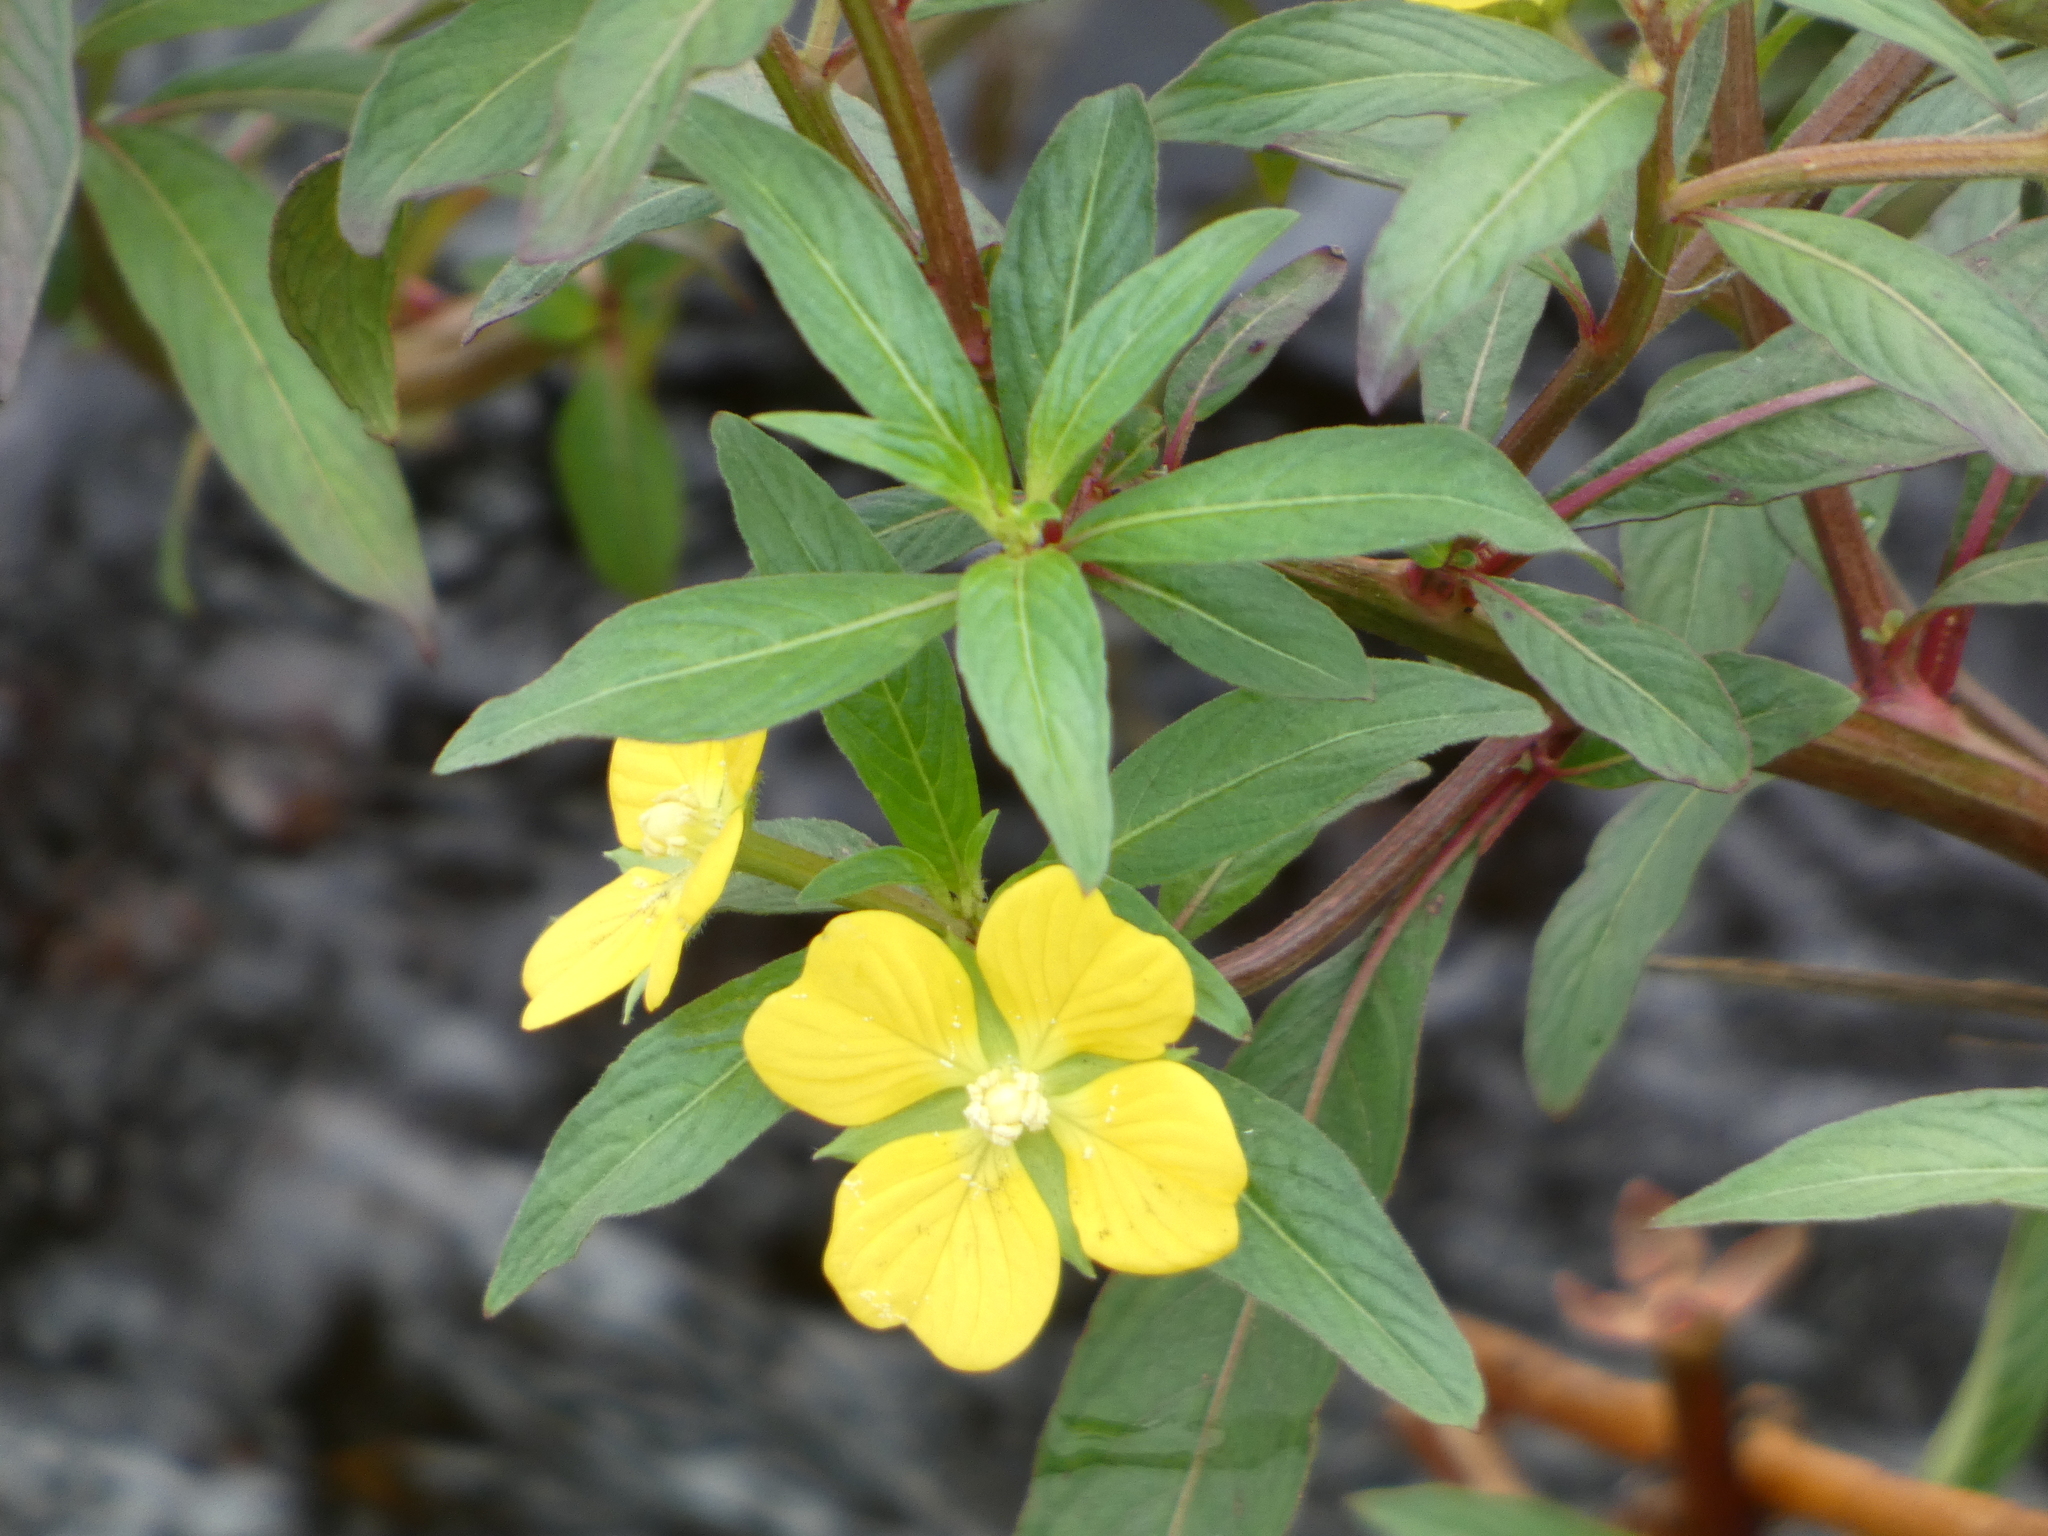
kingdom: Plantae
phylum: Tracheophyta
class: Magnoliopsida
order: Myrtales
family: Onagraceae
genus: Ludwigia
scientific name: Ludwigia octovalvis
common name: Water-primrose
